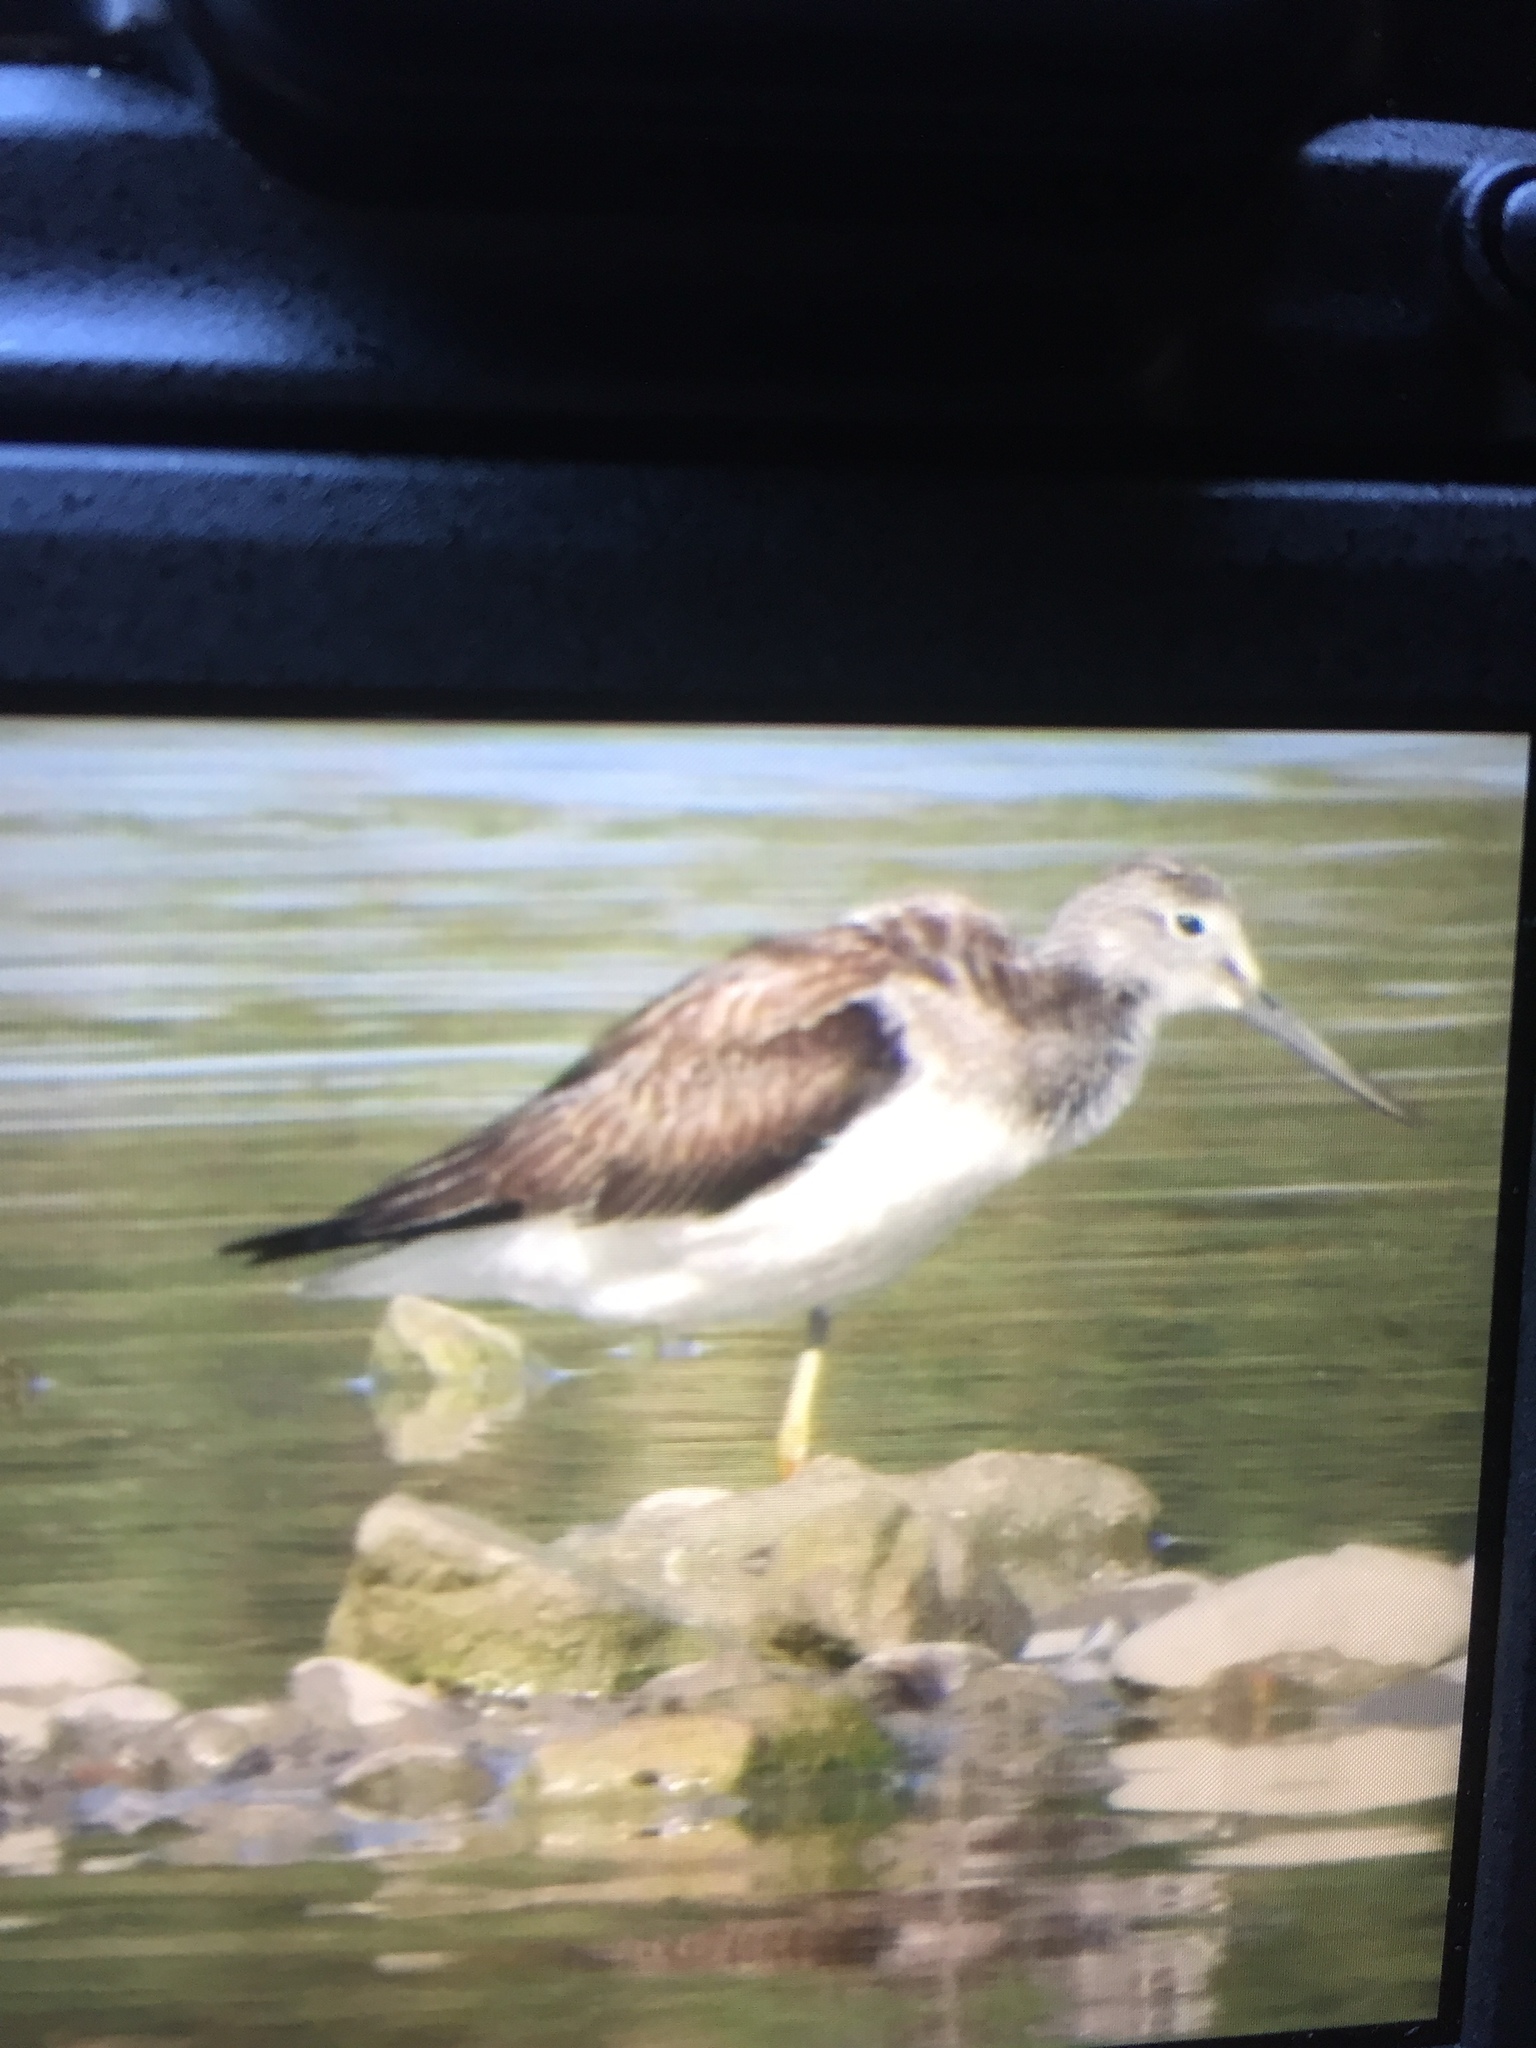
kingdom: Animalia
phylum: Chordata
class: Aves
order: Charadriiformes
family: Scolopacidae
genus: Tringa
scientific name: Tringa nebularia
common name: Common greenshank
